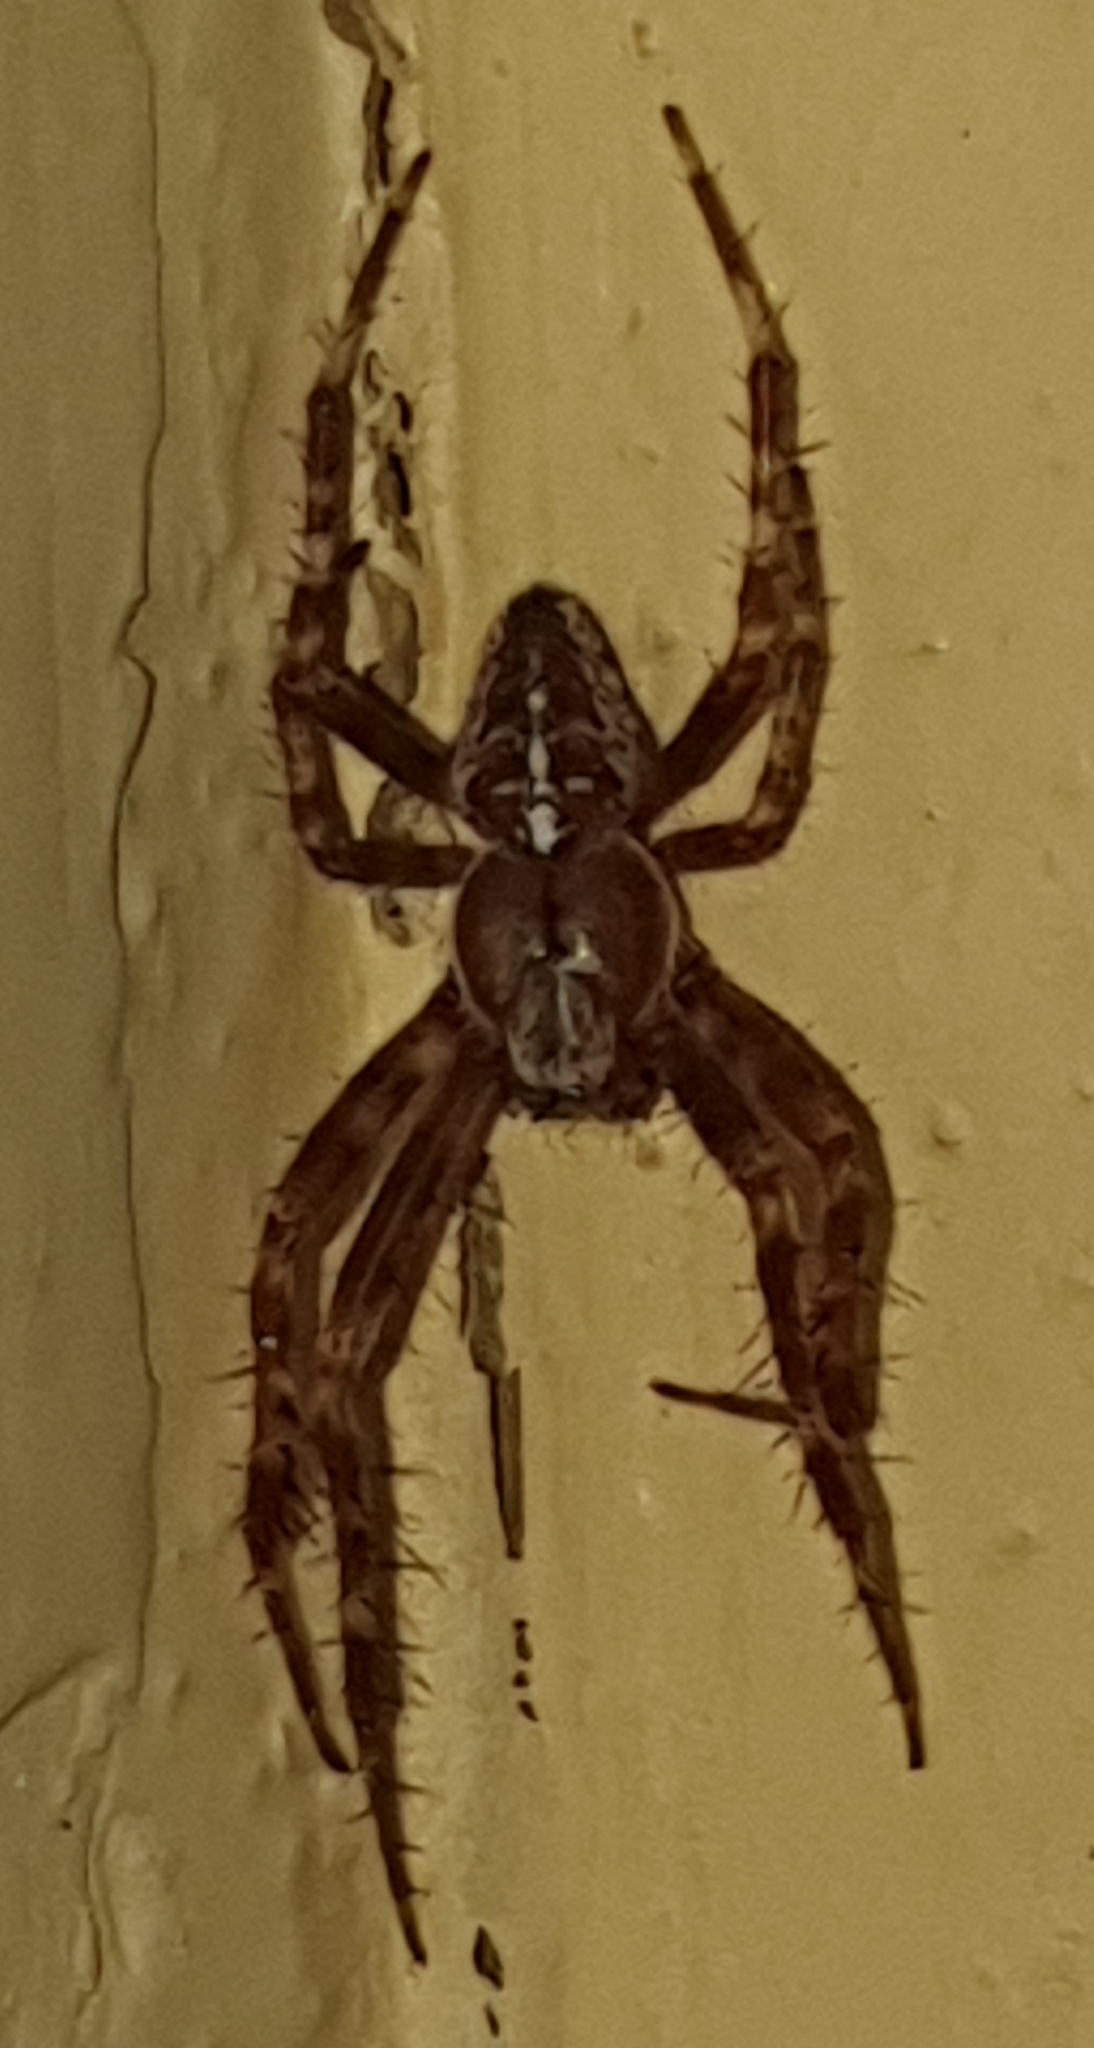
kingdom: Animalia
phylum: Arthropoda
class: Arachnida
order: Araneae
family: Araneidae
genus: Araneus
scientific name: Araneus diadematus
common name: Cross orbweaver
